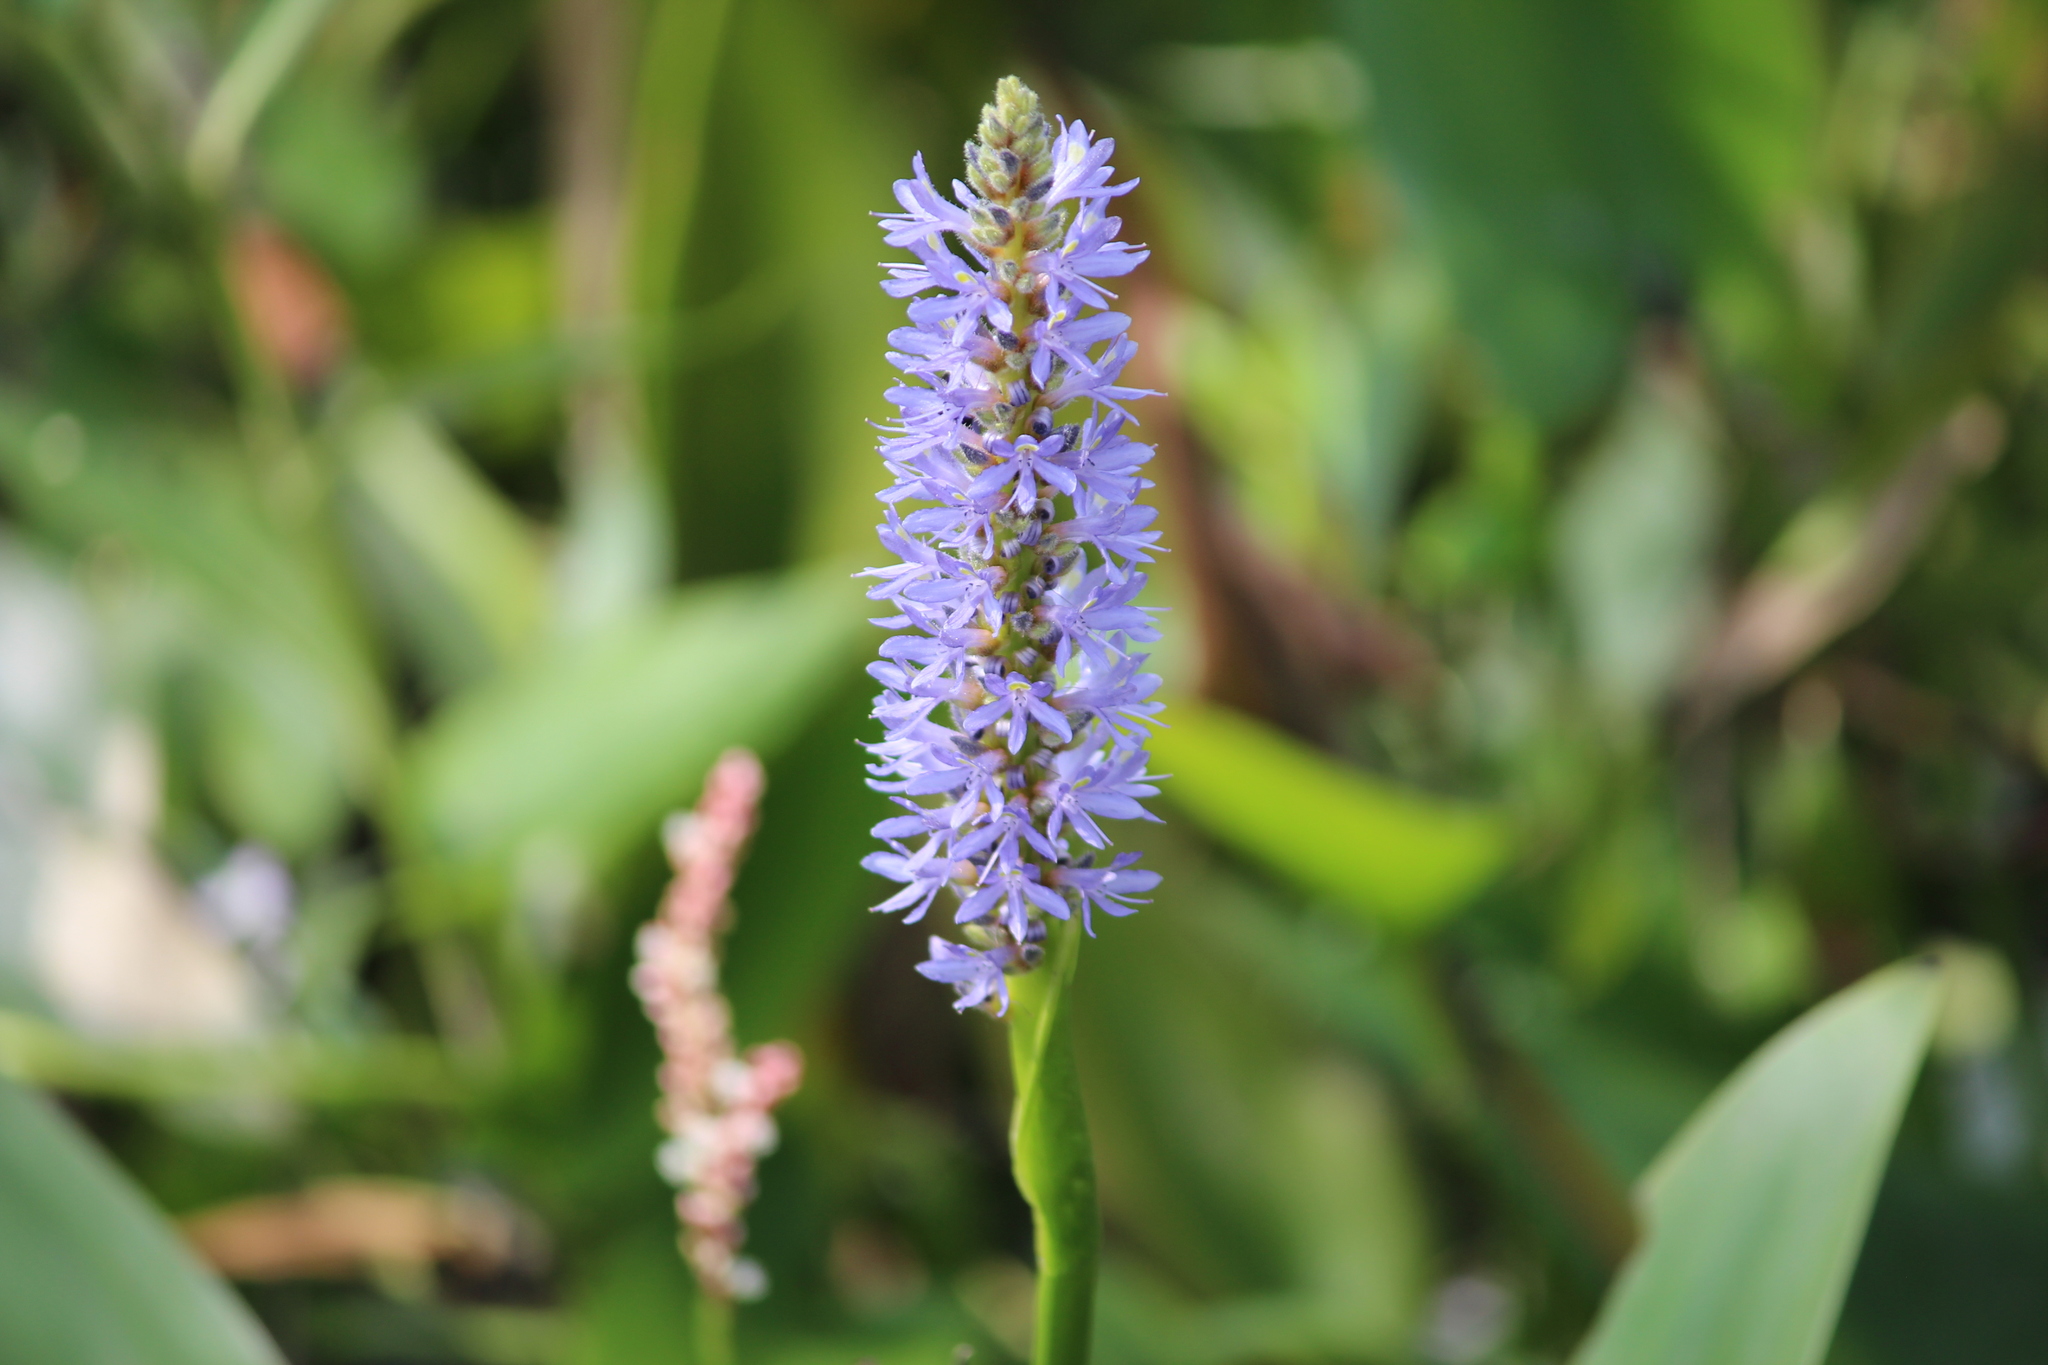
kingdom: Plantae
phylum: Tracheophyta
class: Liliopsida
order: Commelinales
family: Pontederiaceae
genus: Pontederia
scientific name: Pontederia cordata
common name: Pickerelweed
